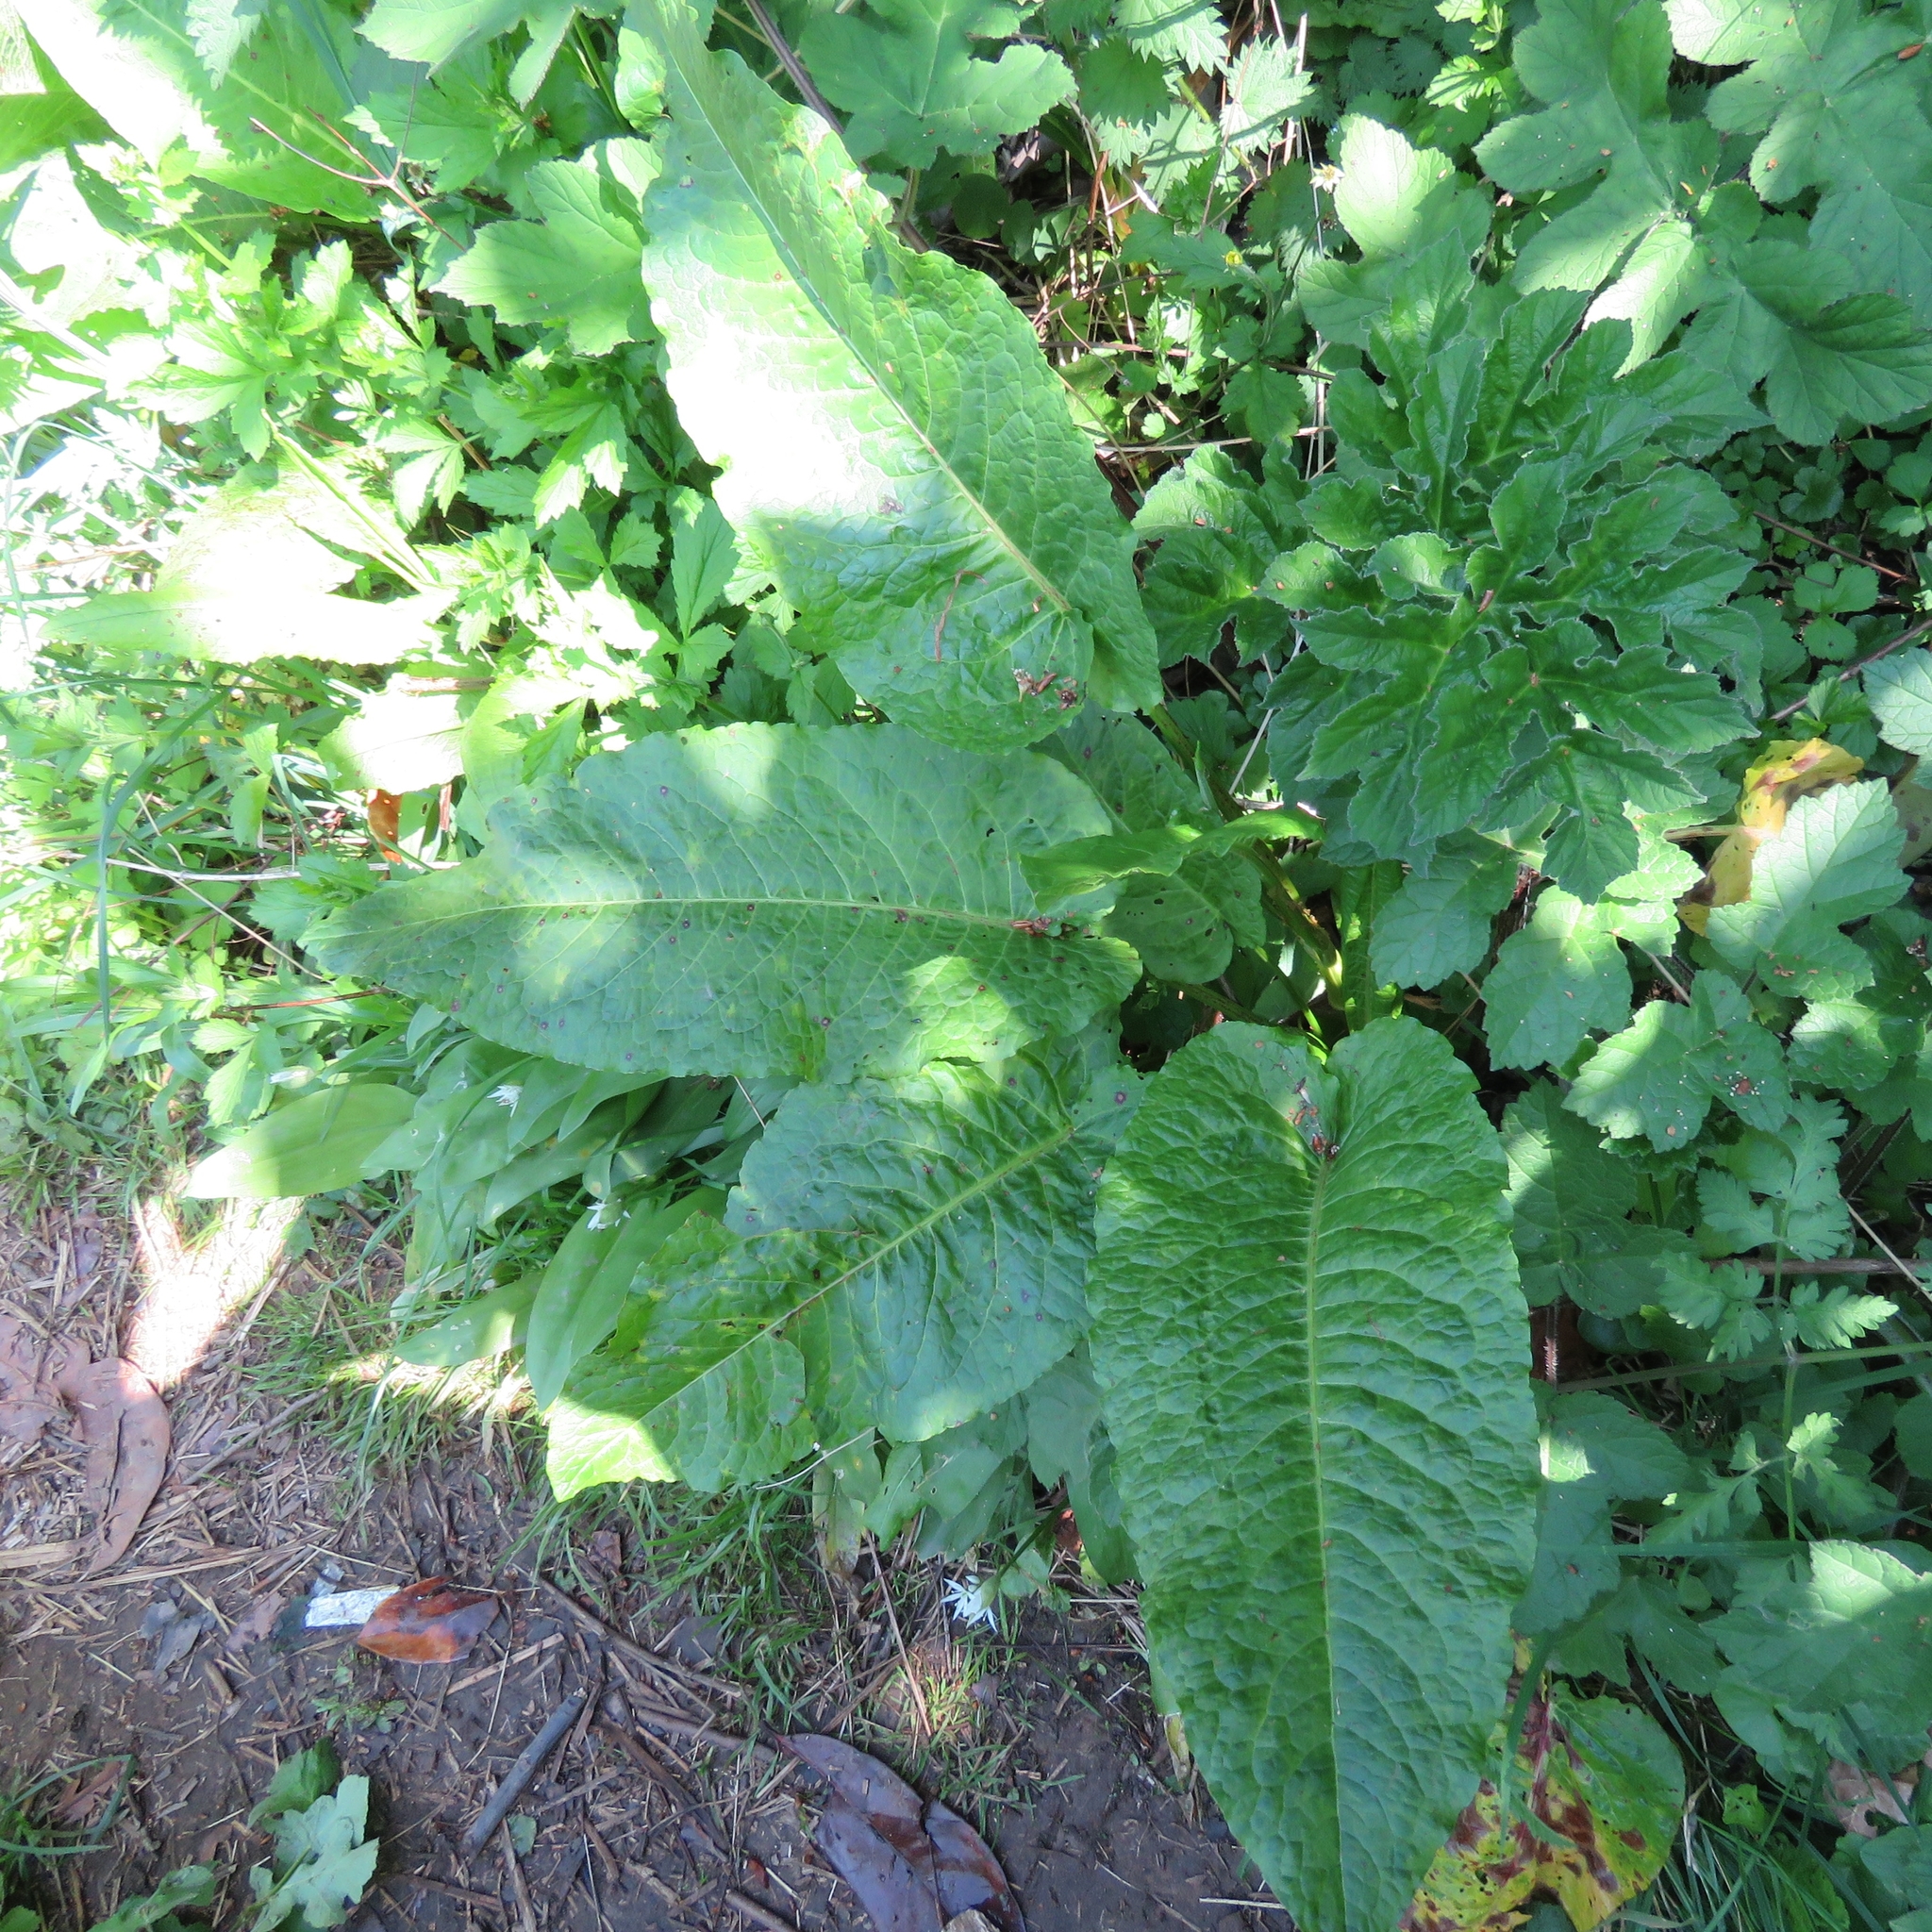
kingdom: Plantae
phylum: Tracheophyta
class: Magnoliopsida
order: Caryophyllales
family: Polygonaceae
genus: Rumex
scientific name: Rumex obtusifolius
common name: Bitter dock
